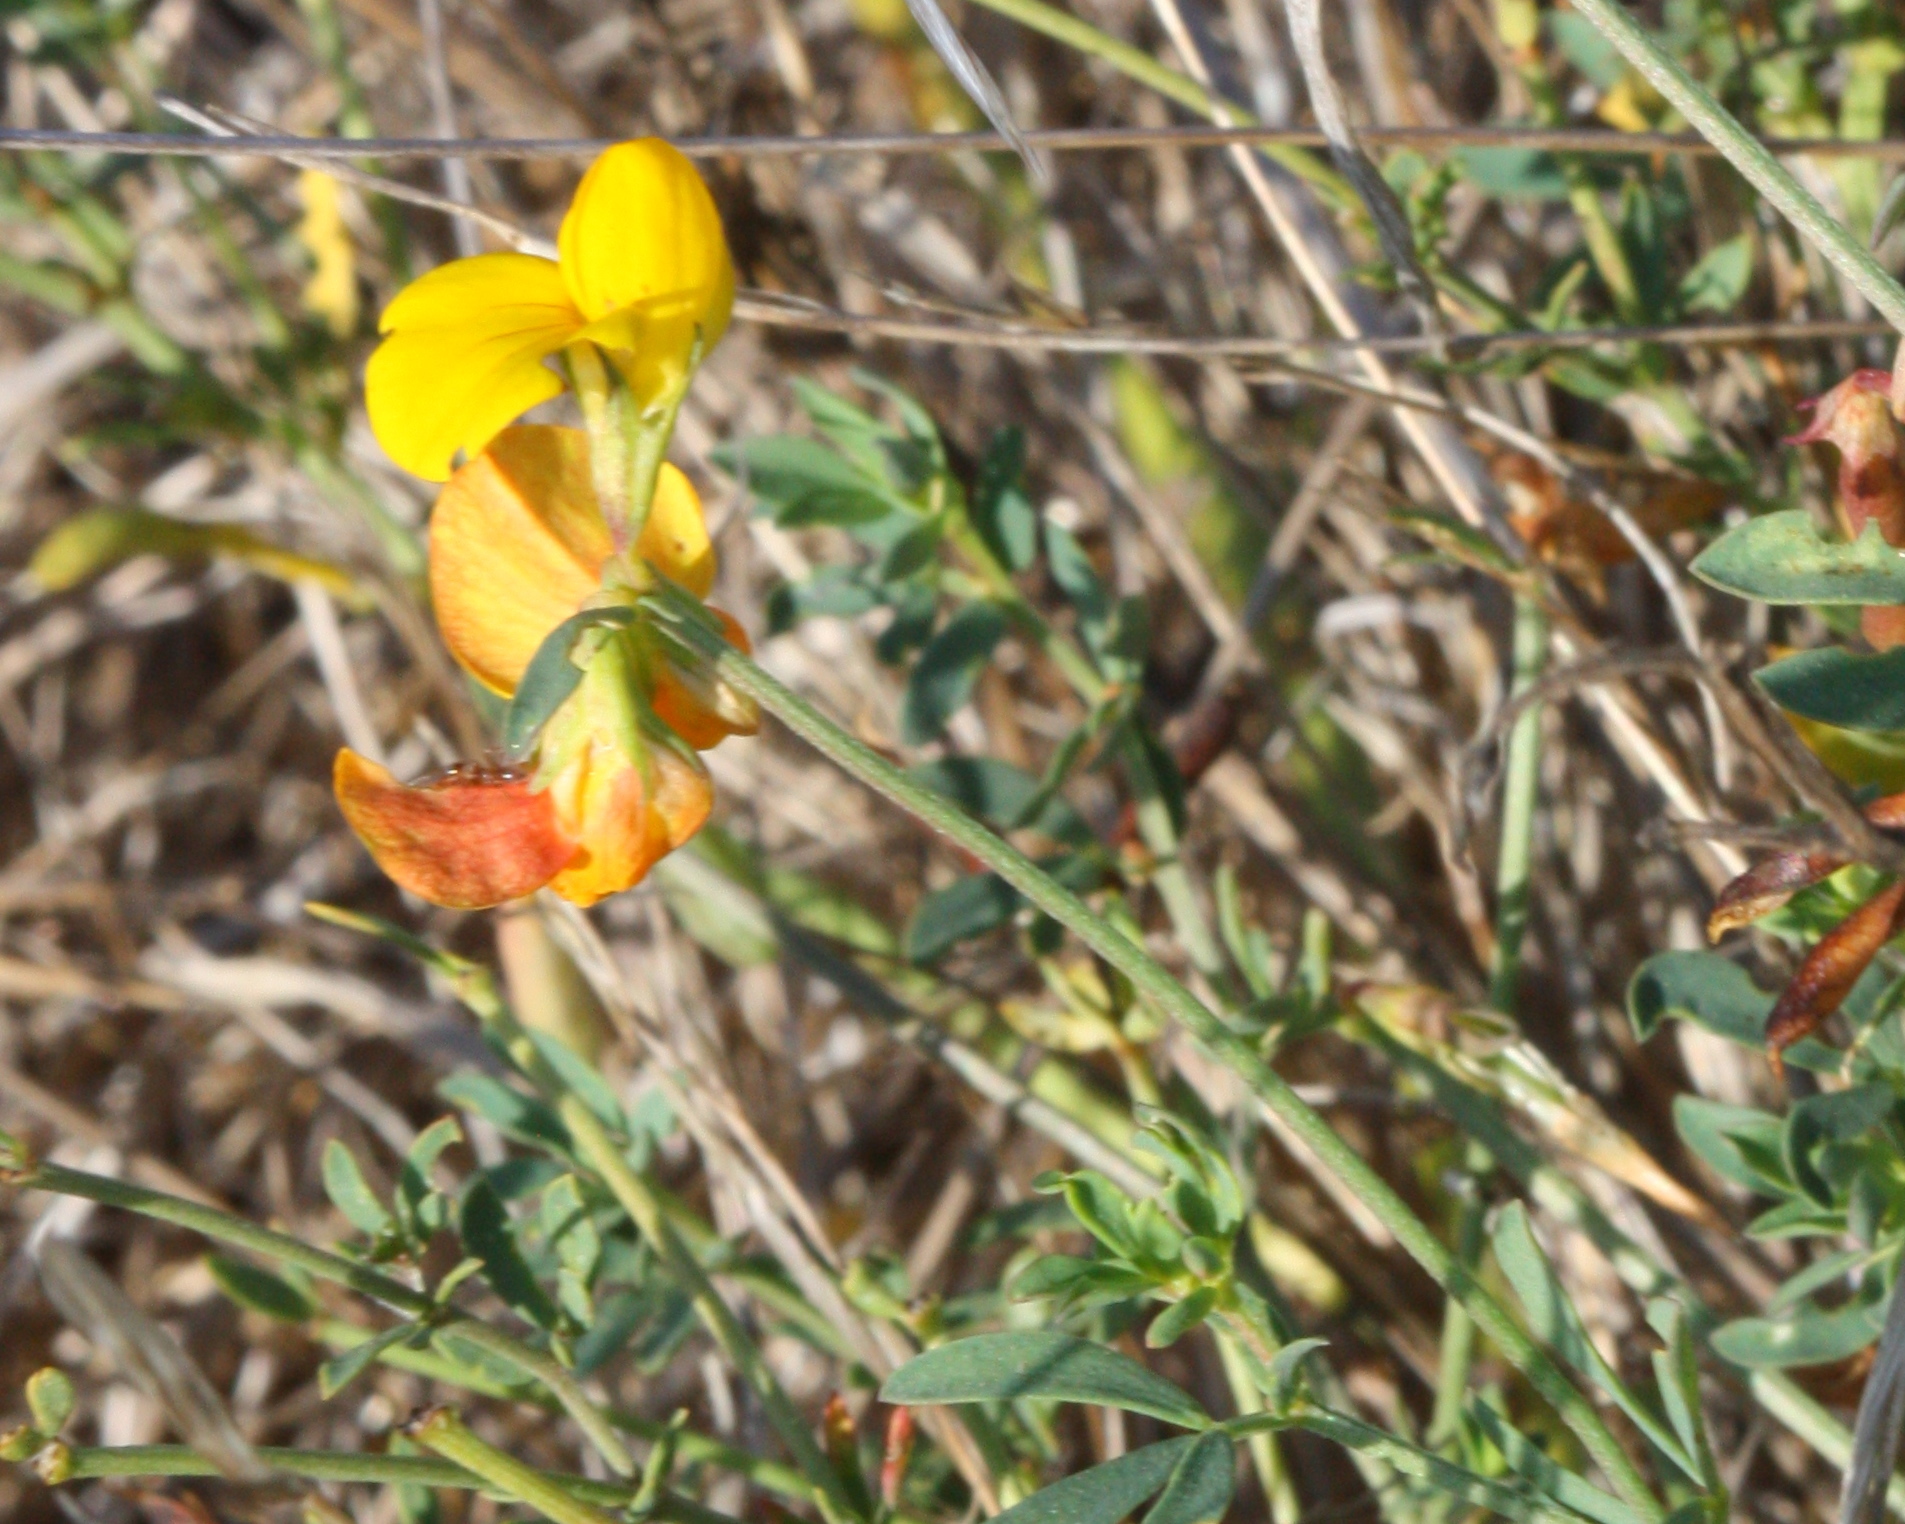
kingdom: Plantae
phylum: Tracheophyta
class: Magnoliopsida
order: Fabales
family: Fabaceae
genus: Acmispon
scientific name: Acmispon glaber
